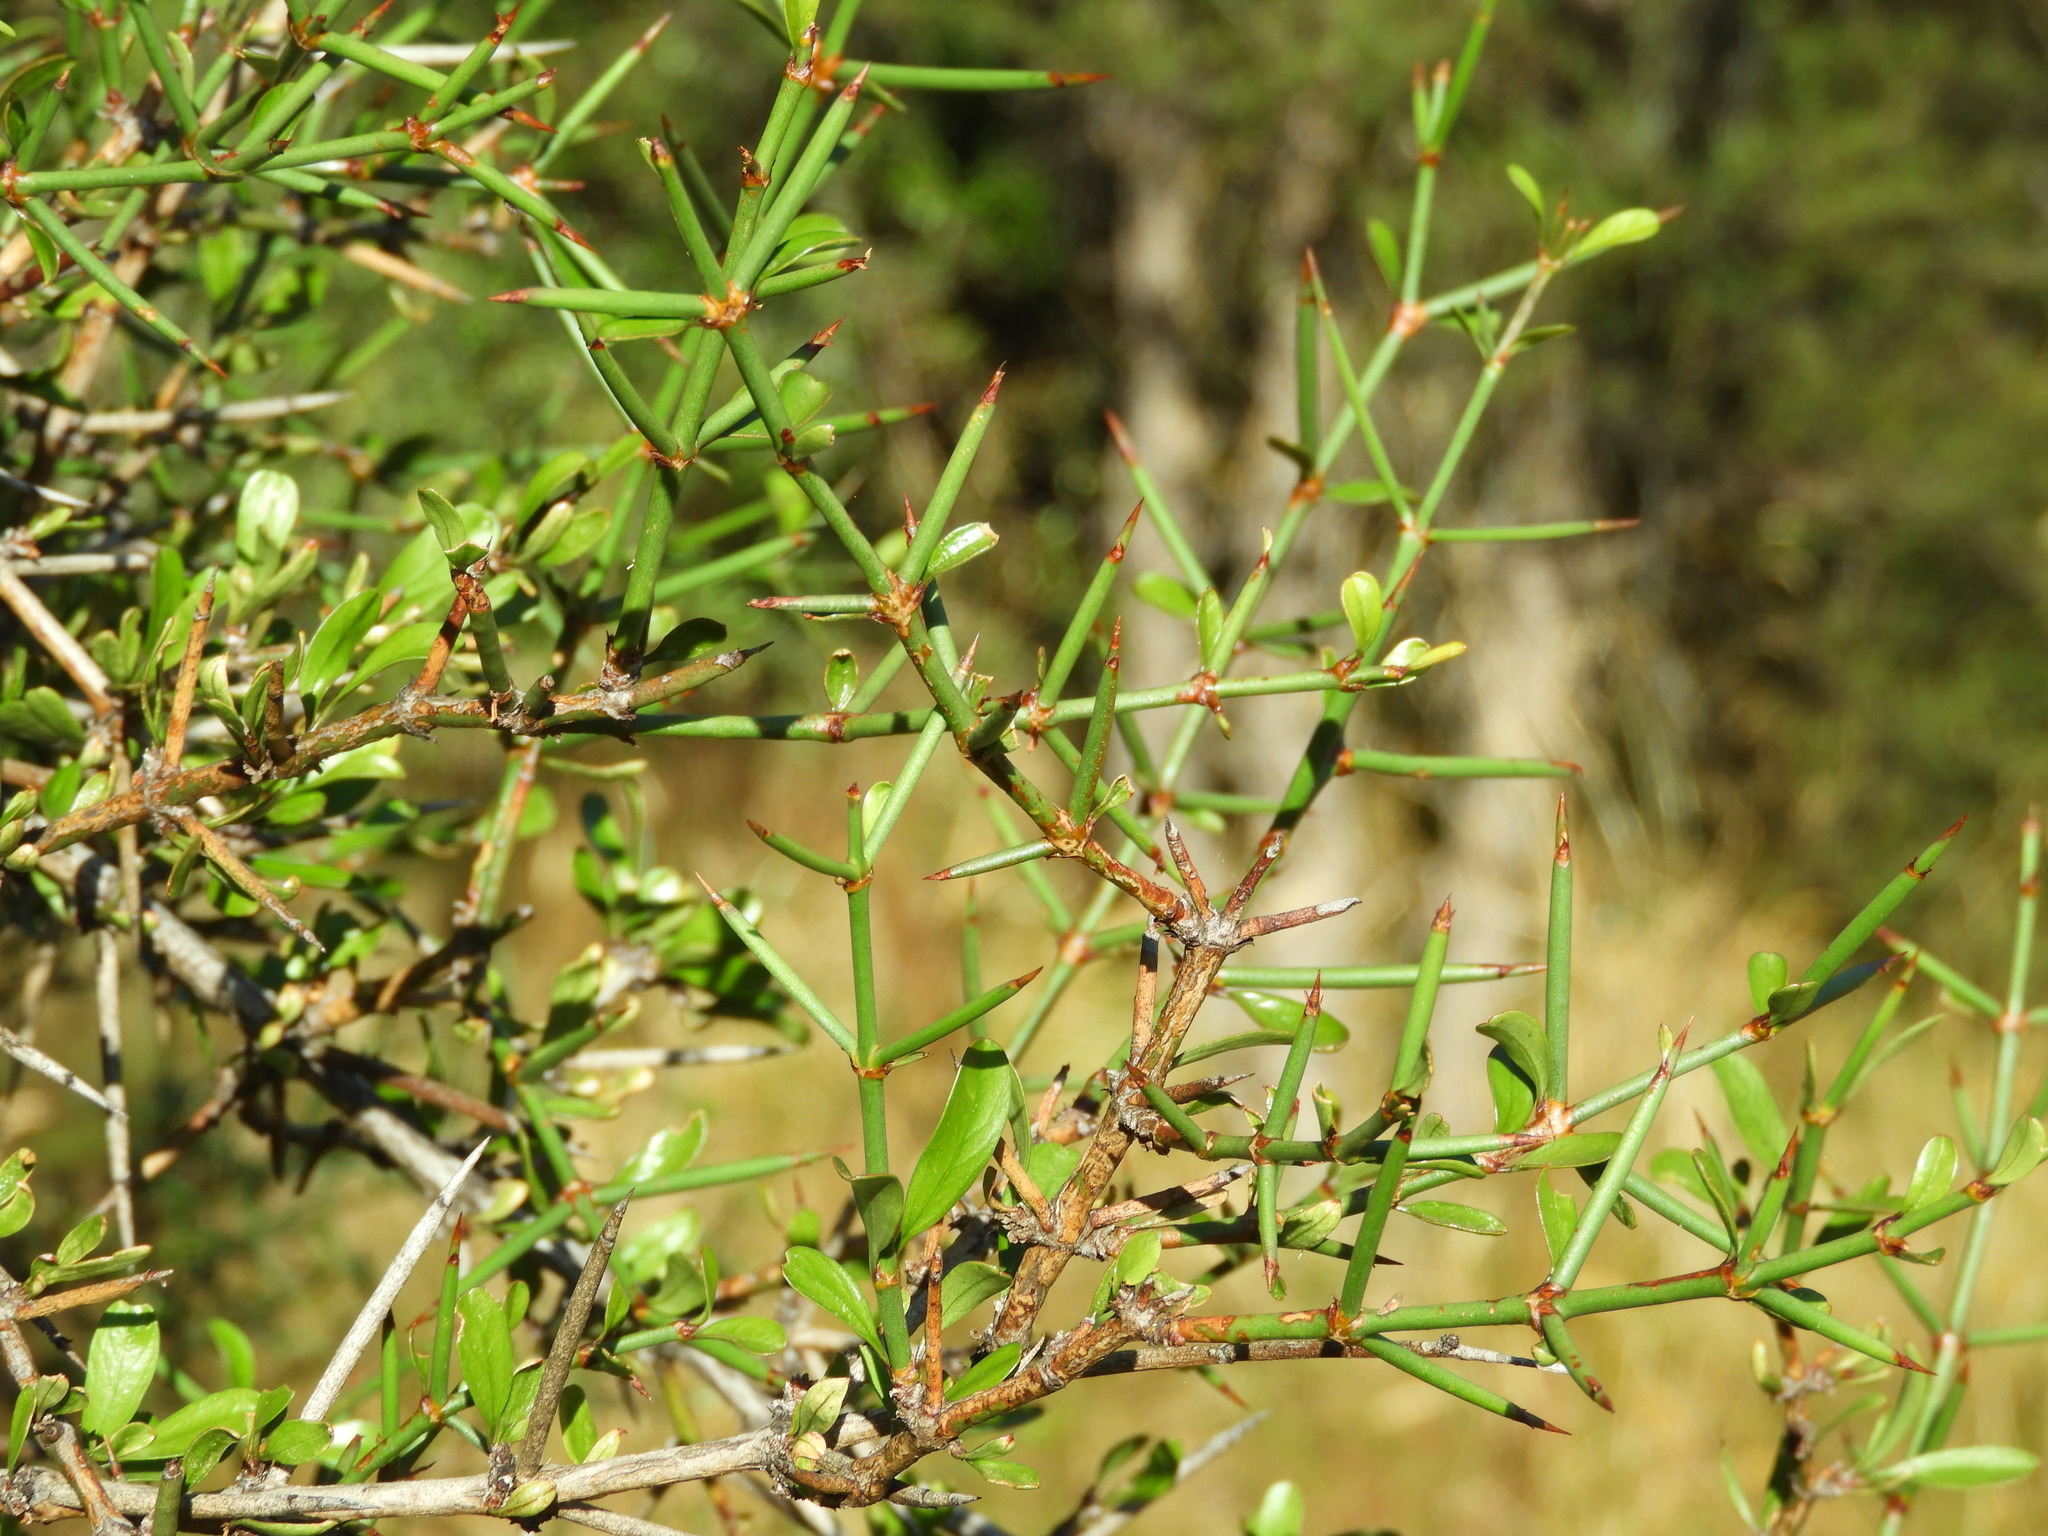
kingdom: Plantae
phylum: Tracheophyta
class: Magnoliopsida
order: Rosales
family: Rhamnaceae
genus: Discaria
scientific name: Discaria toumatou
